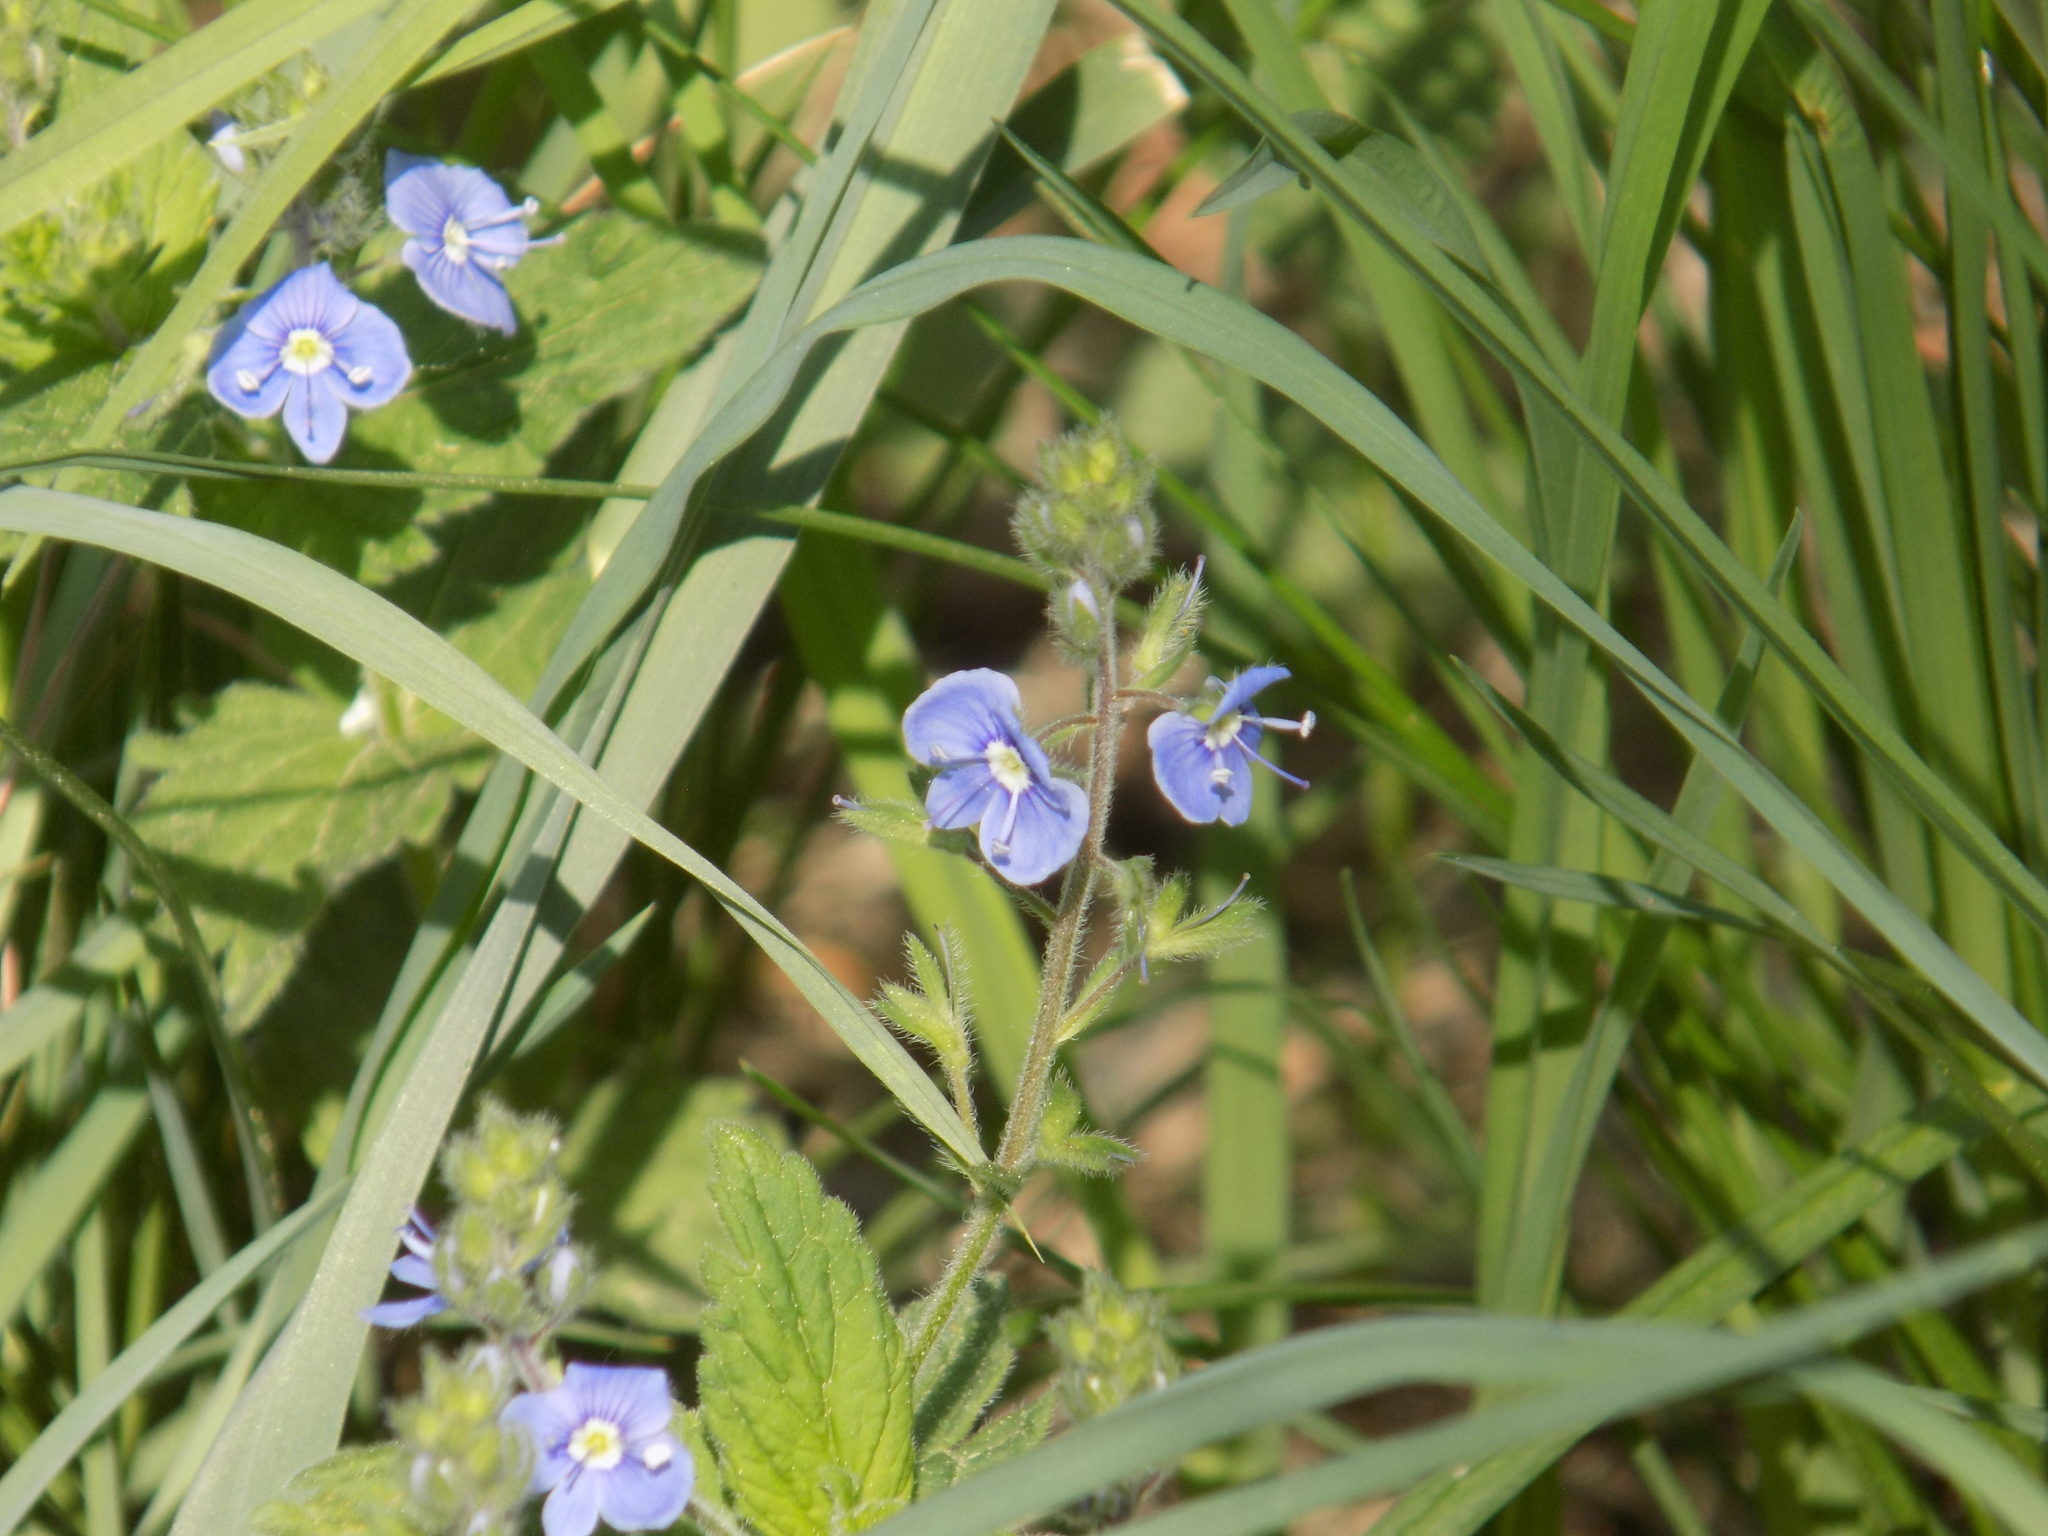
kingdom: Plantae
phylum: Tracheophyta
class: Magnoliopsida
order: Lamiales
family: Plantaginaceae
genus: Veronica
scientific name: Veronica chamaedrys
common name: Germander speedwell
